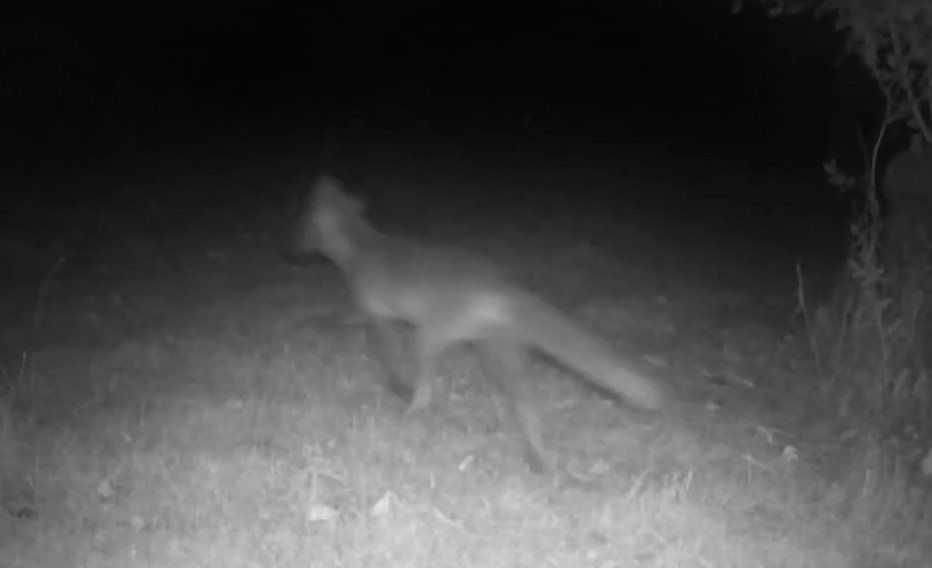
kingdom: Animalia
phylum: Chordata
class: Mammalia
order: Carnivora
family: Canidae
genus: Vulpes
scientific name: Vulpes vulpes
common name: Red fox
